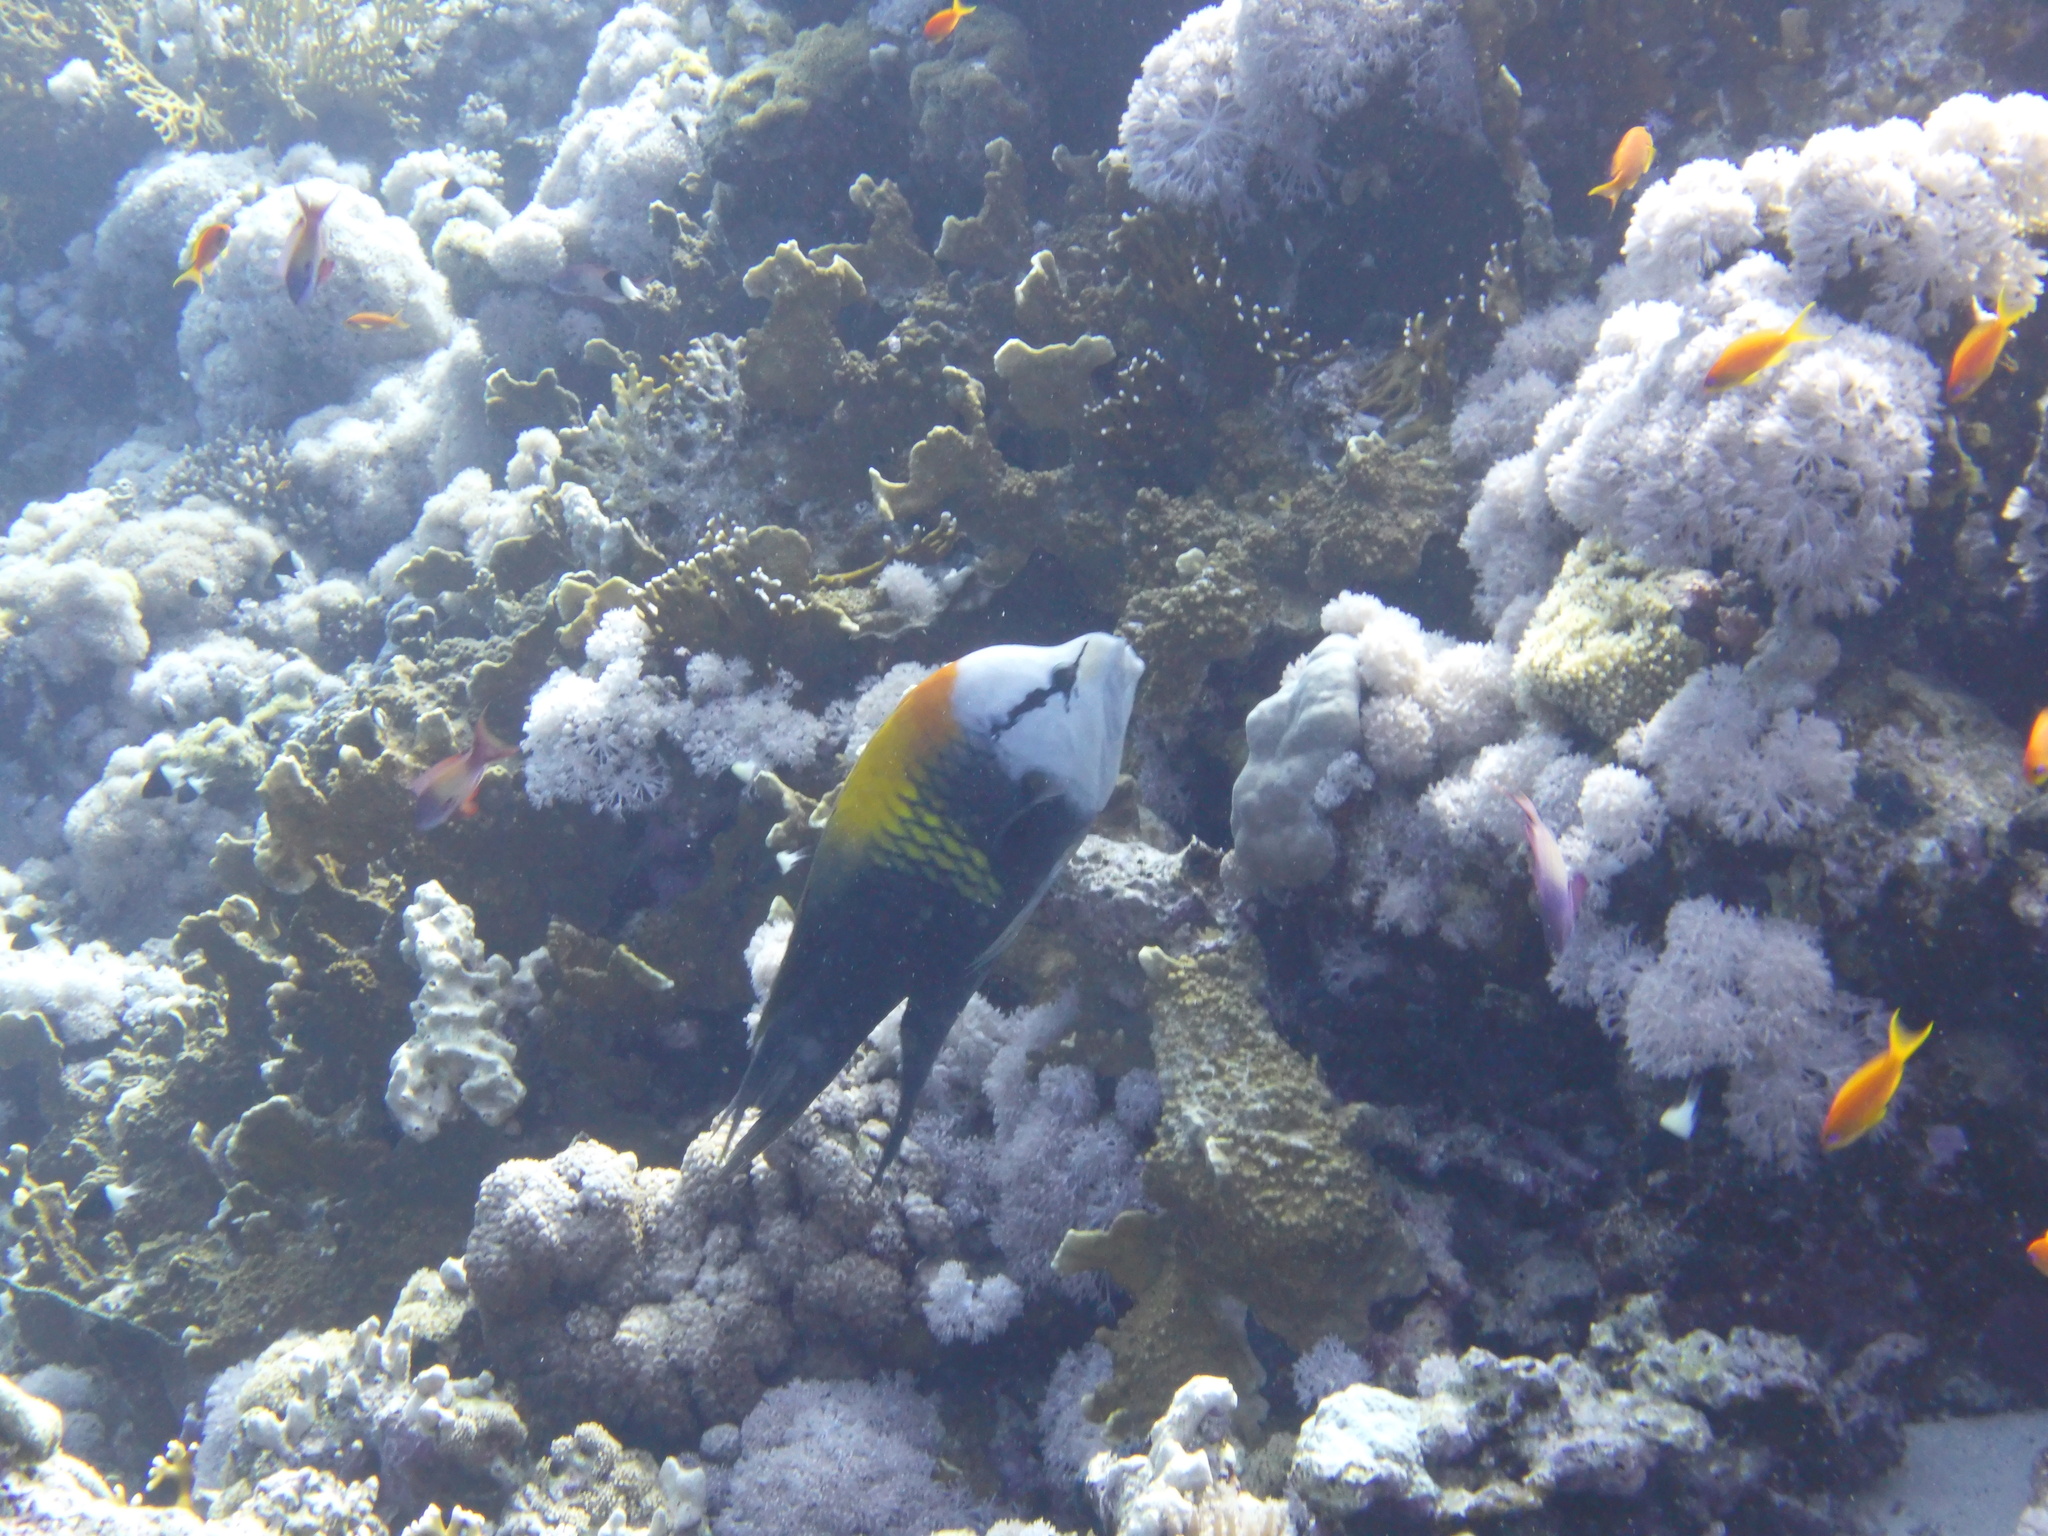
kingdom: Animalia
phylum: Chordata
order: Perciformes
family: Labridae
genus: Epibulus
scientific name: Epibulus insidiator
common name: Slingjaw wrasse
